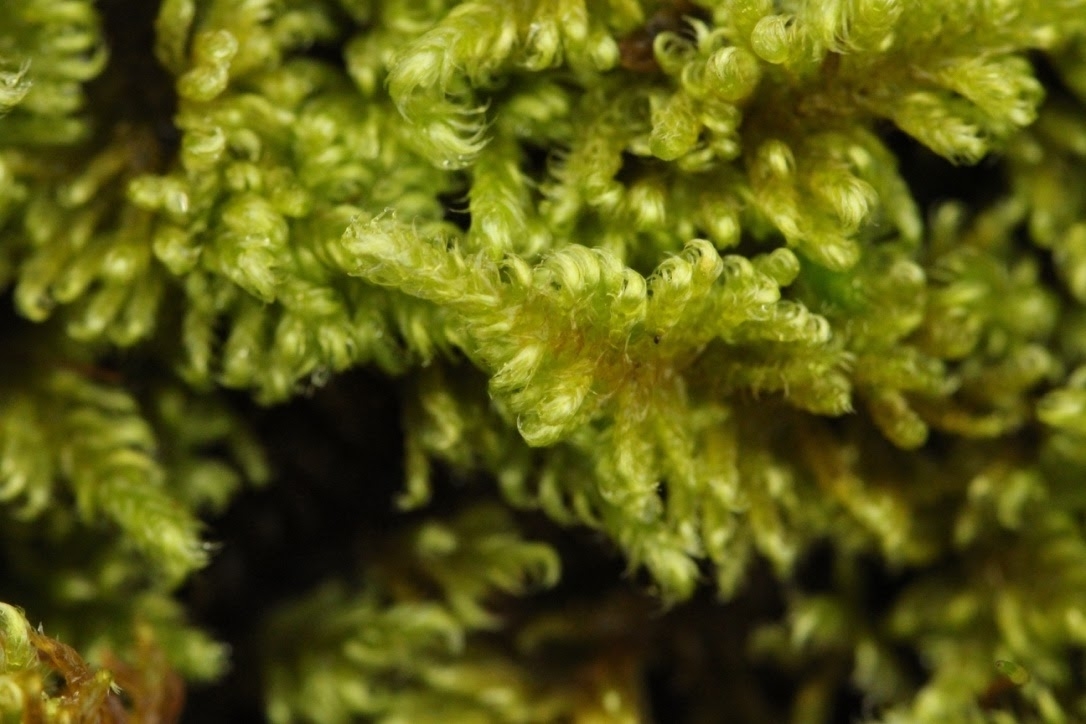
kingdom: Plantae
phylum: Bryophyta
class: Bryopsida
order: Hypnales
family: Myuriaceae
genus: Ctenidium
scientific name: Ctenidium molluscum
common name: Chalk comb-moss
